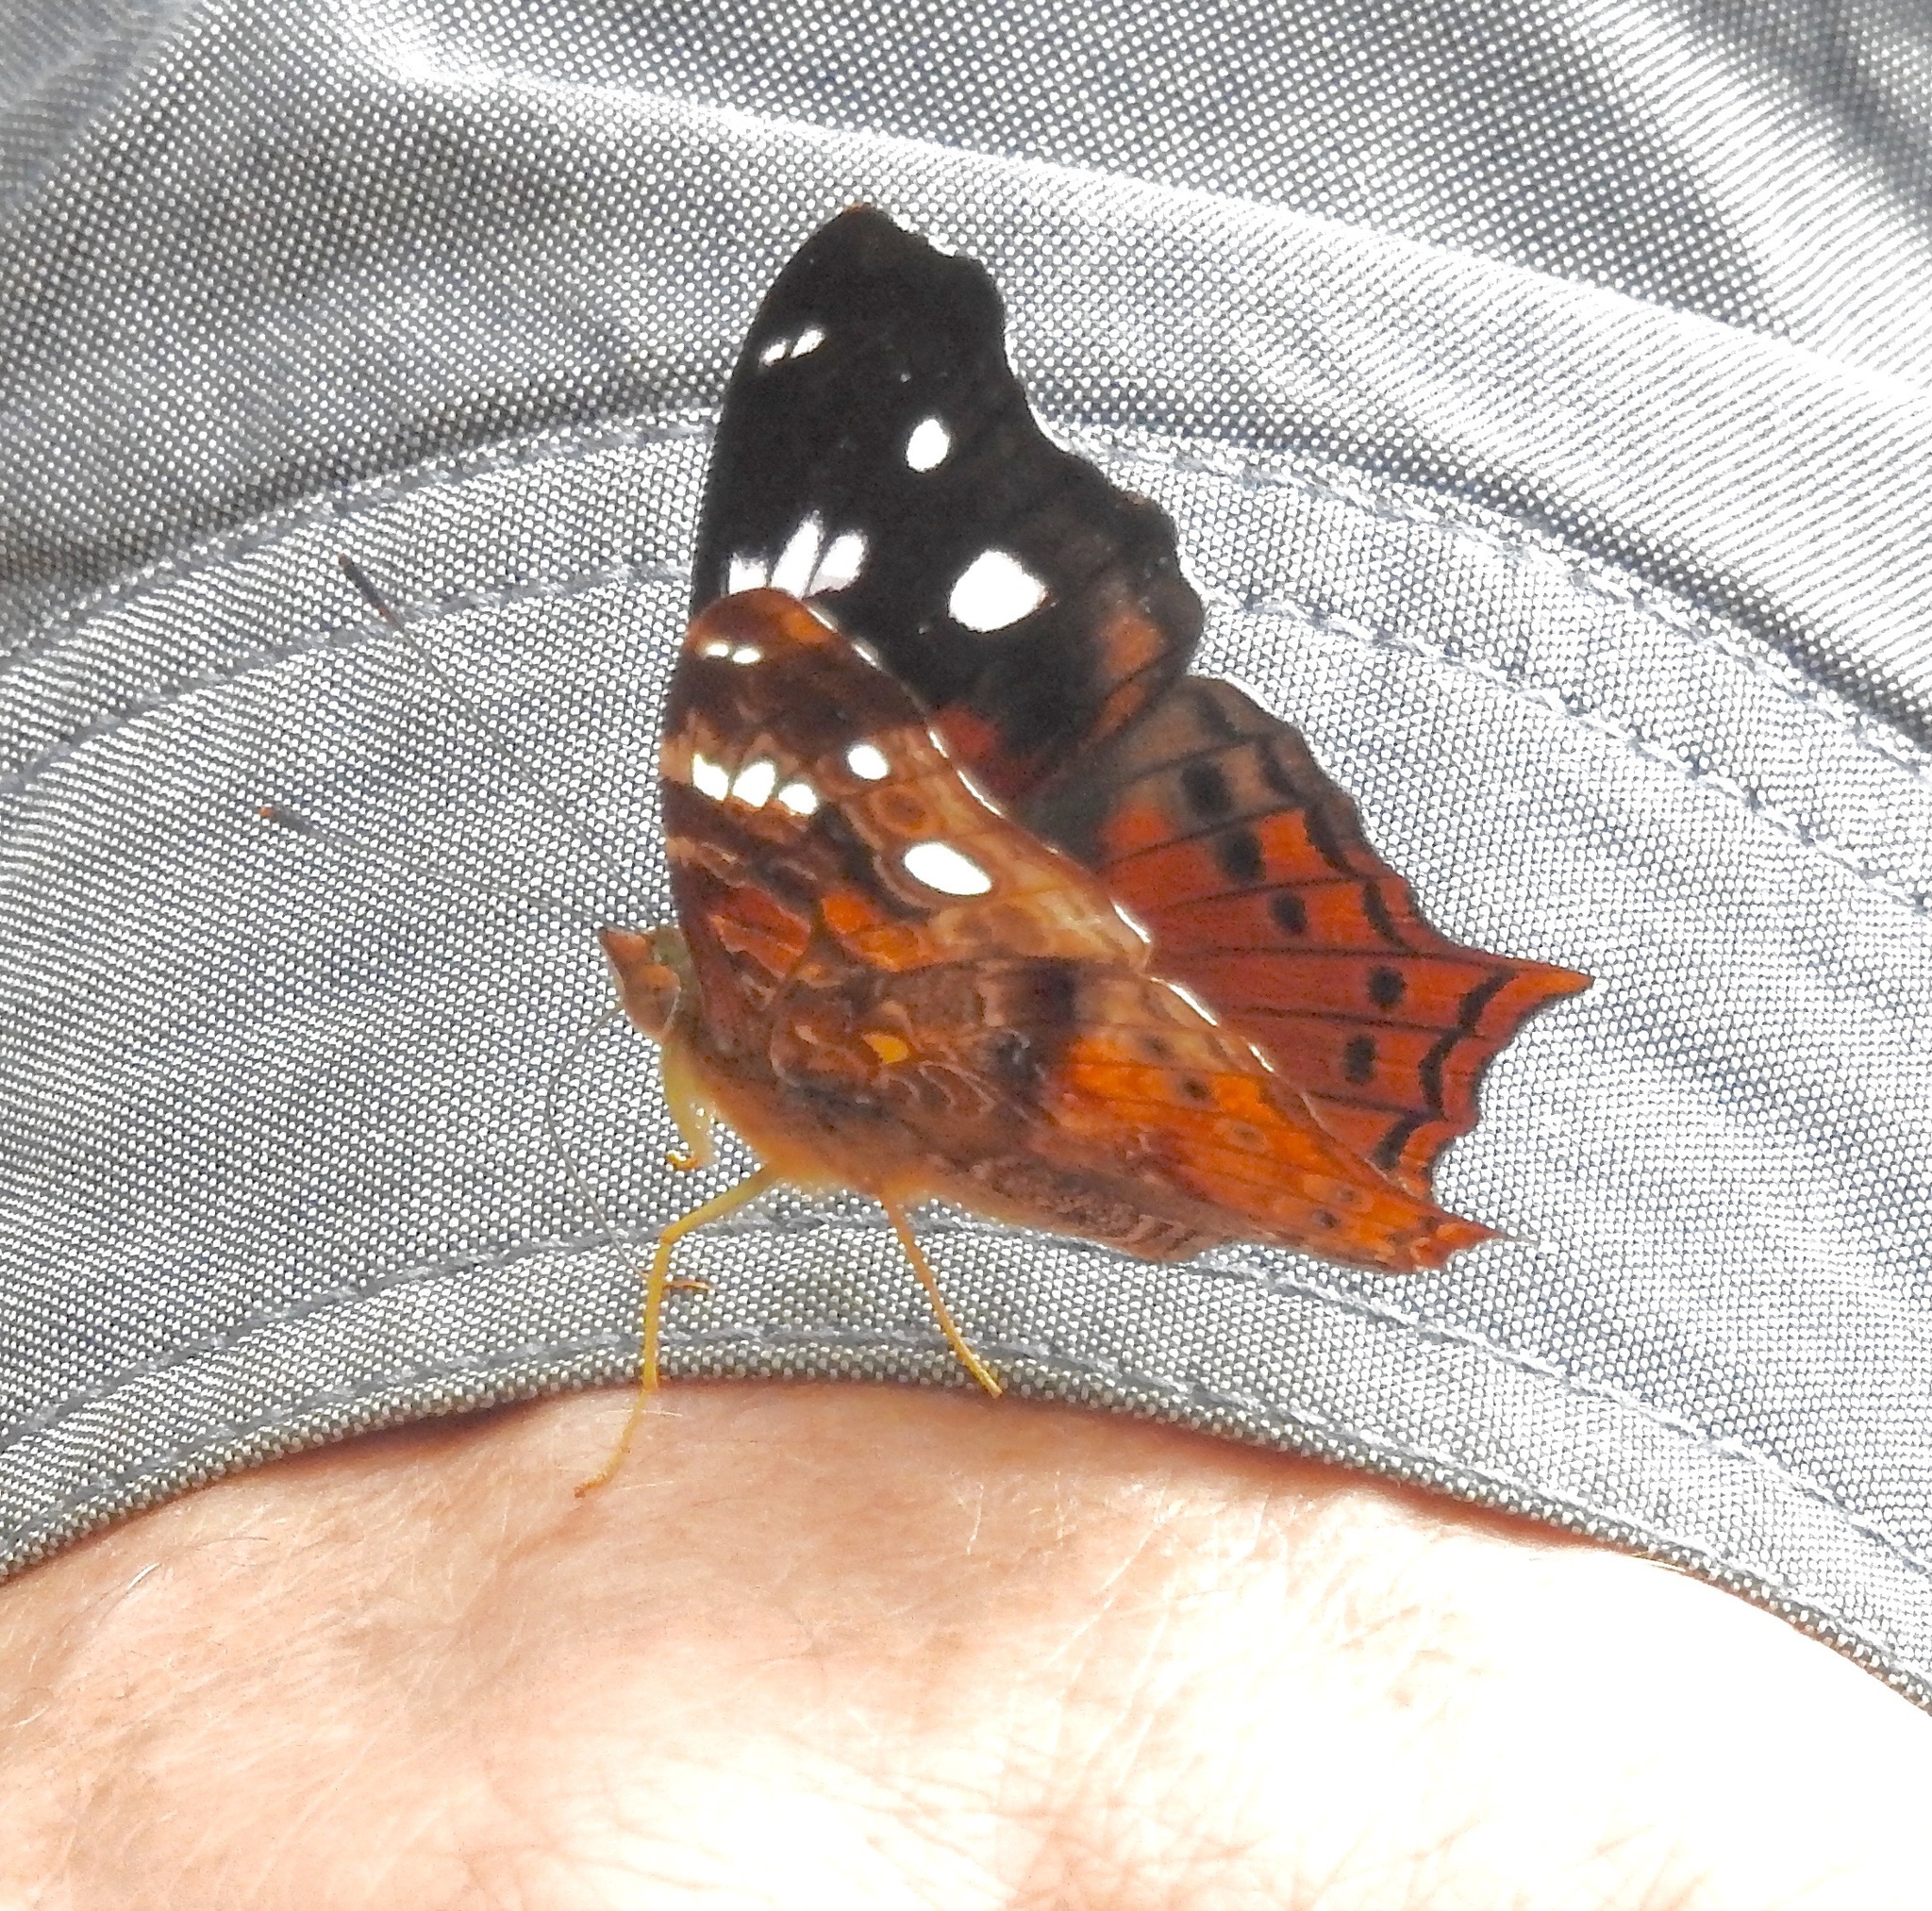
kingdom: Animalia
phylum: Arthropoda
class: Insecta
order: Lepidoptera
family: Nymphalidae
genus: Hypanartia
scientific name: Hypanartia trimaculata
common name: Reddish mapwing
